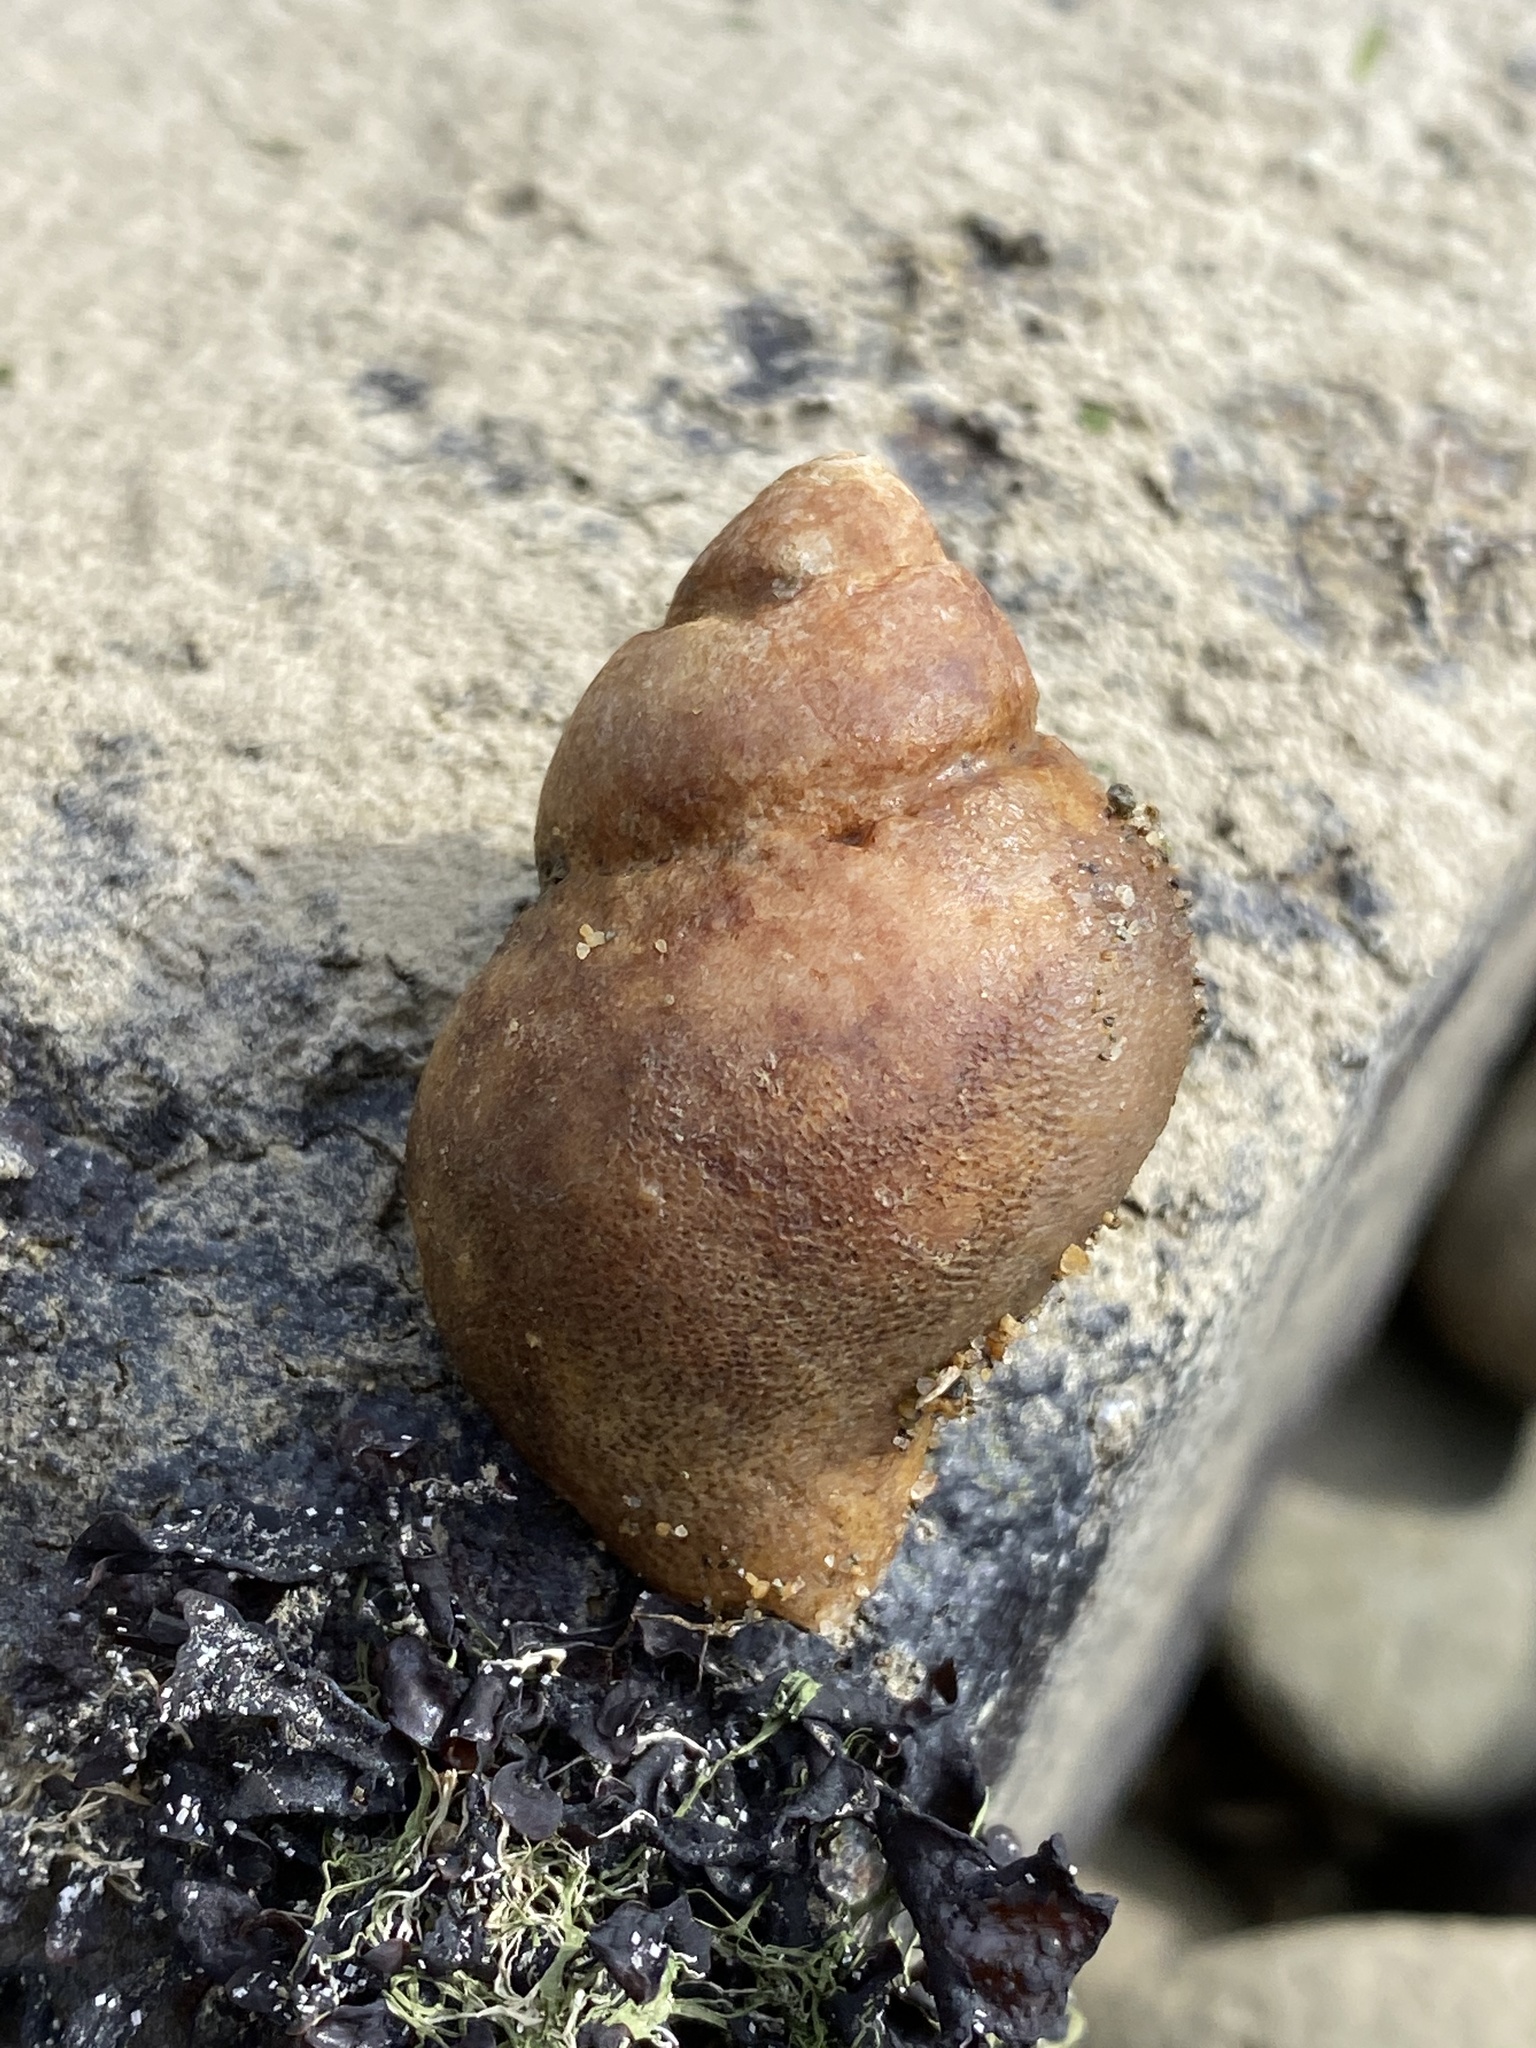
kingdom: Animalia
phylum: Mollusca
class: Gastropoda
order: Neogastropoda
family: Muricidae
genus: Nucella
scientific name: Nucella lamellosa
